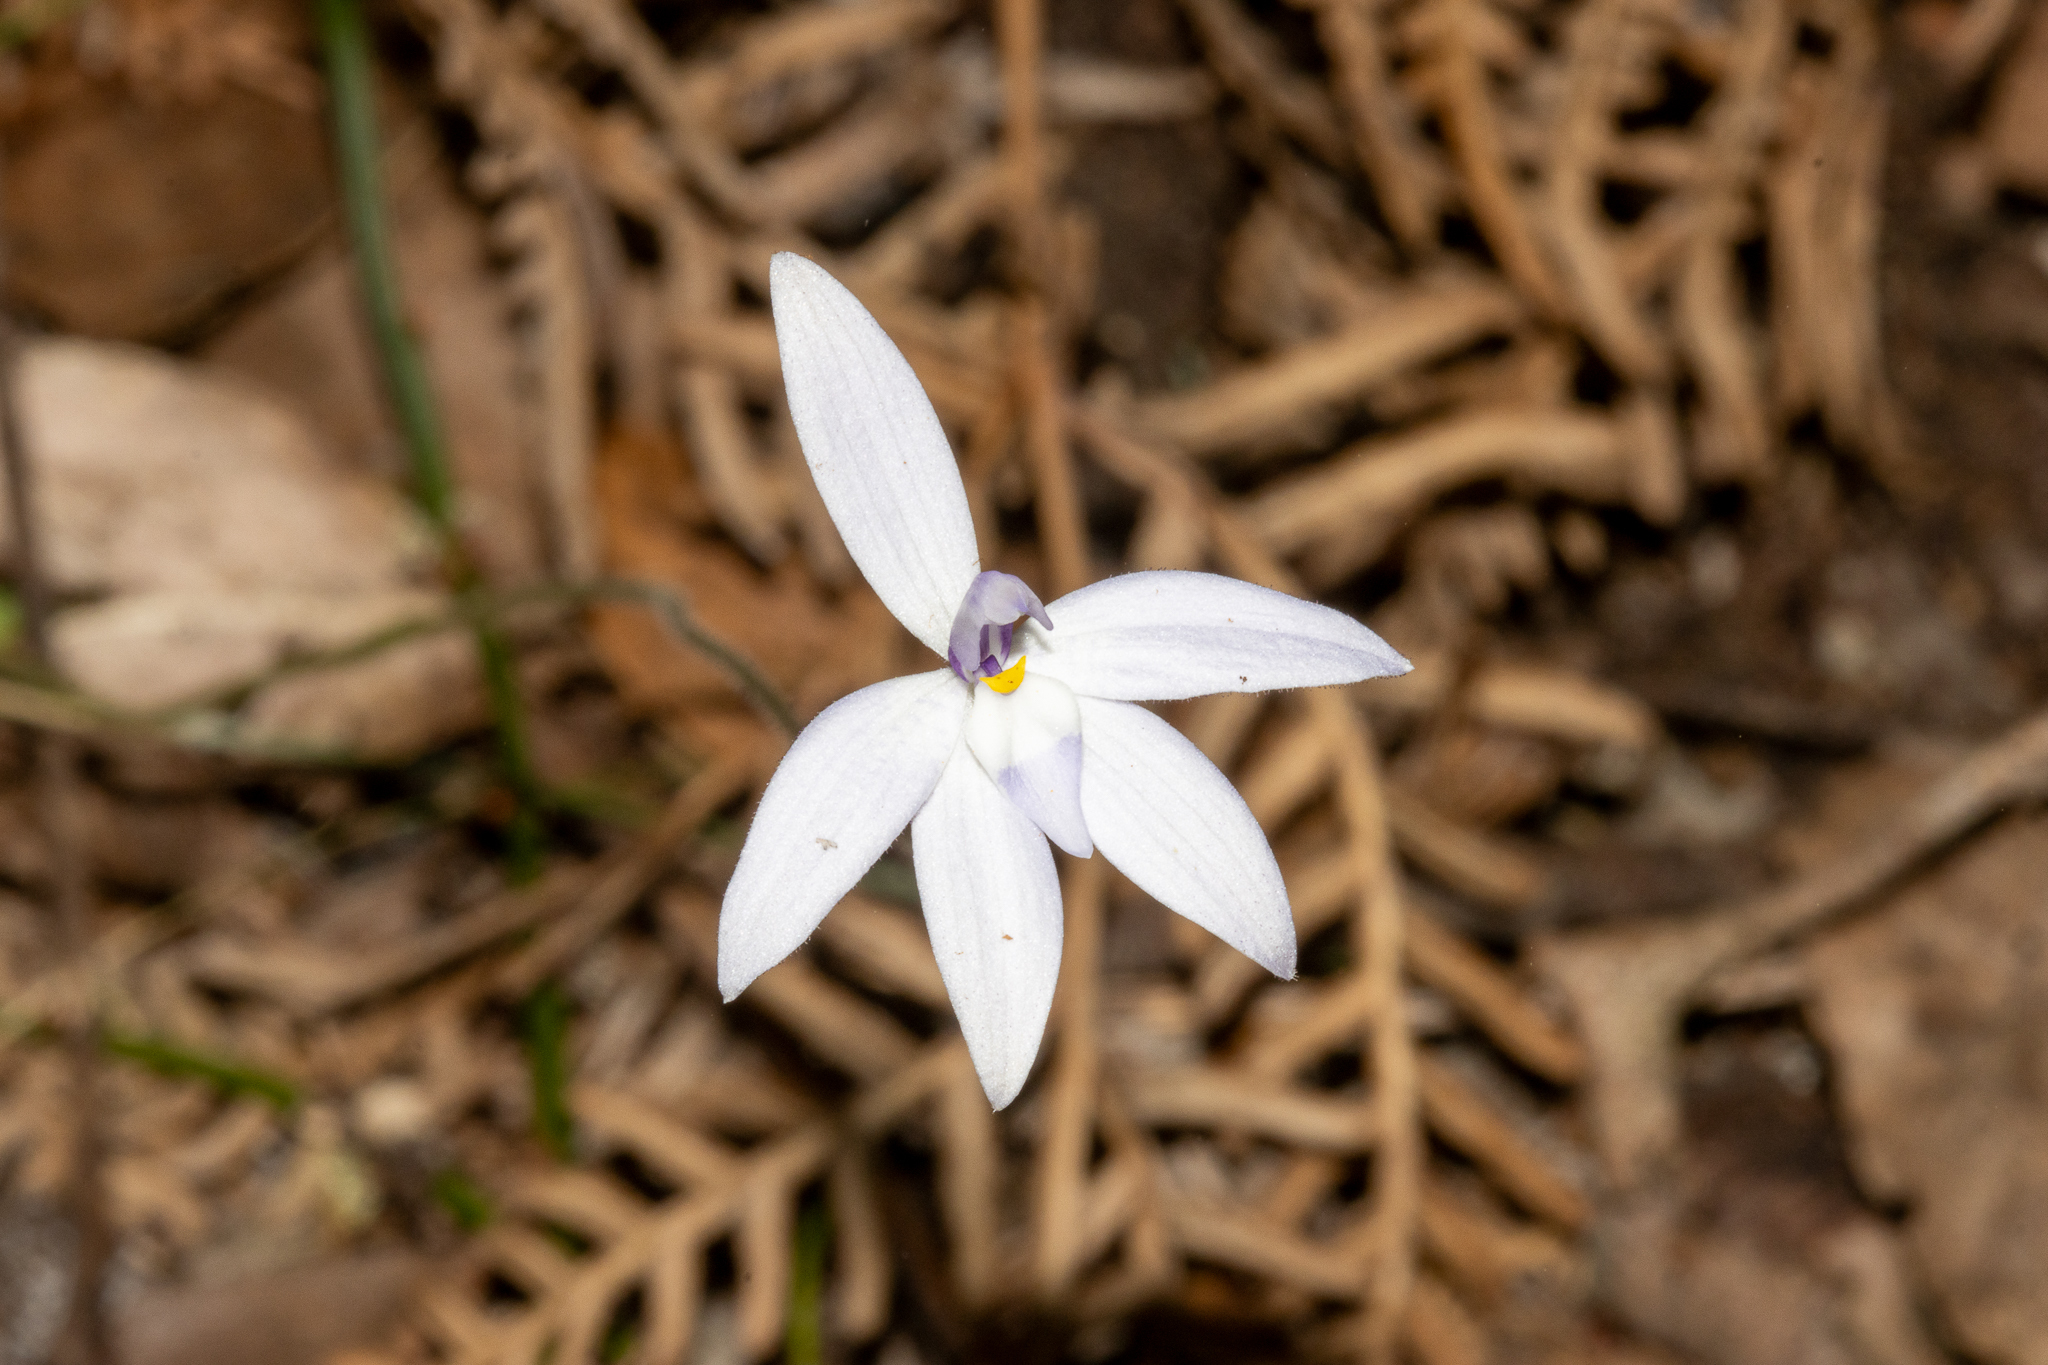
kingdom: Plantae
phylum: Tracheophyta
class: Liliopsida
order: Asparagales
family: Orchidaceae
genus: Caladenia
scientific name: Caladenia major
